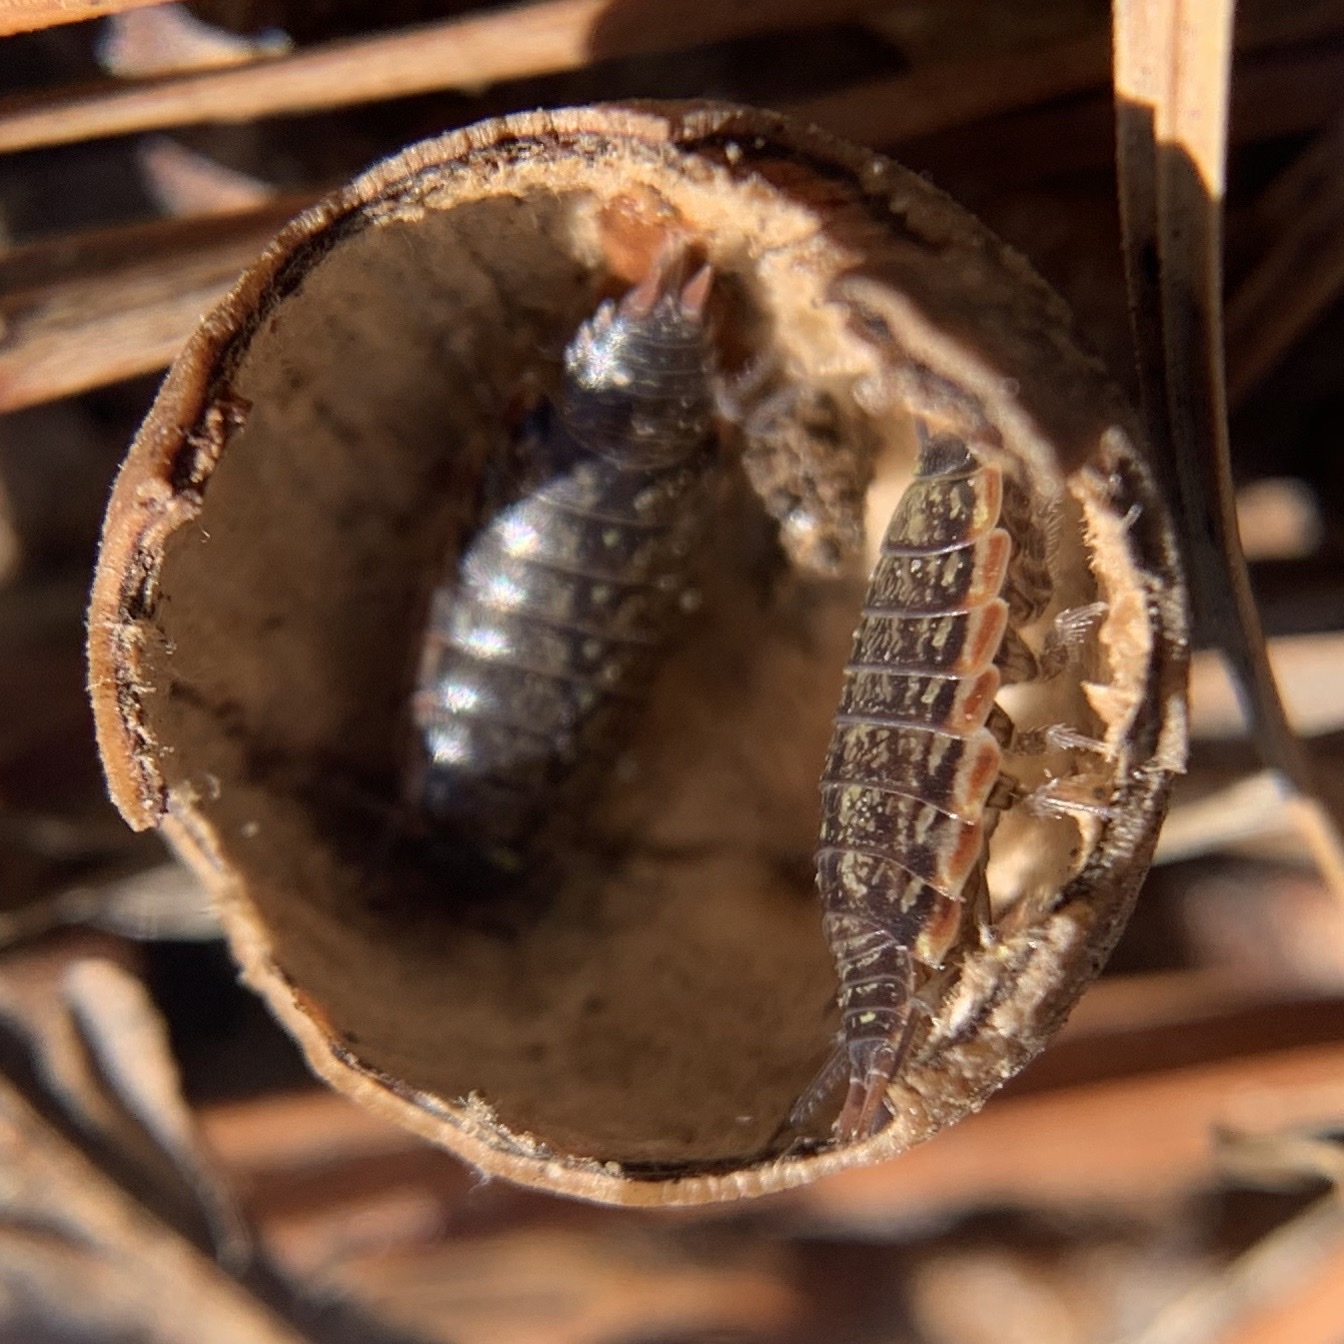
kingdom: Animalia
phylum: Arthropoda
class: Malacostraca
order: Isopoda
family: Philosciidae
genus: Philoscia
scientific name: Philoscia muscorum
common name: Common striped woodlouse
